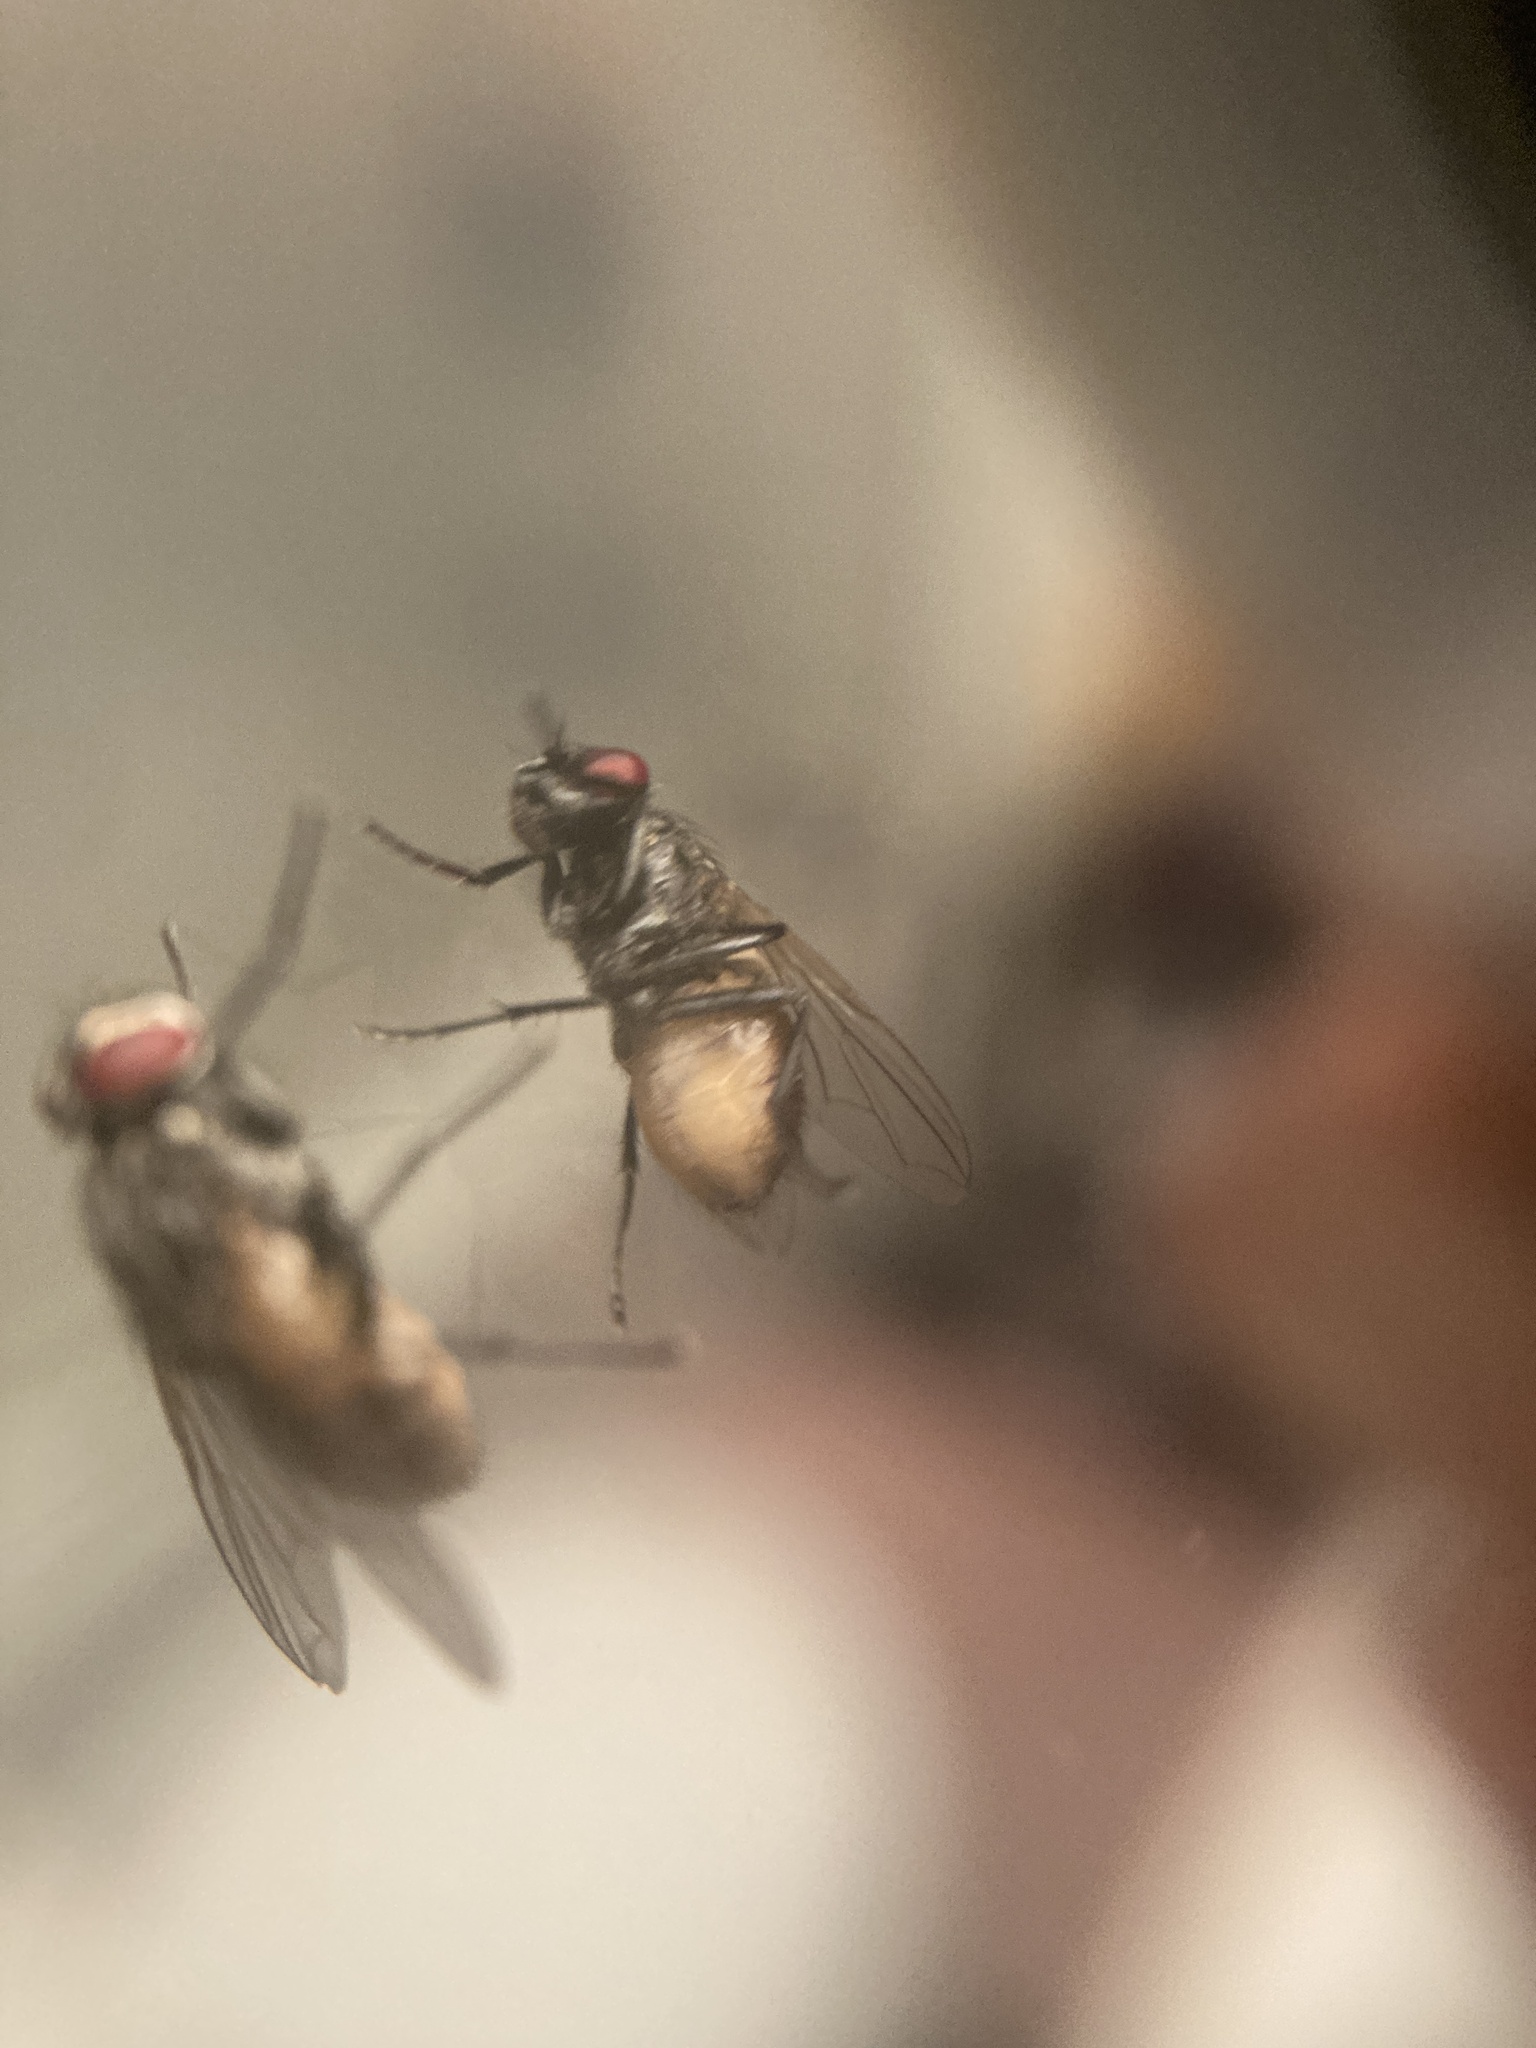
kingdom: Animalia
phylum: Arthropoda
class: Insecta
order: Diptera
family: Muscidae
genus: Musca
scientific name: Musca domestica
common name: House fly
